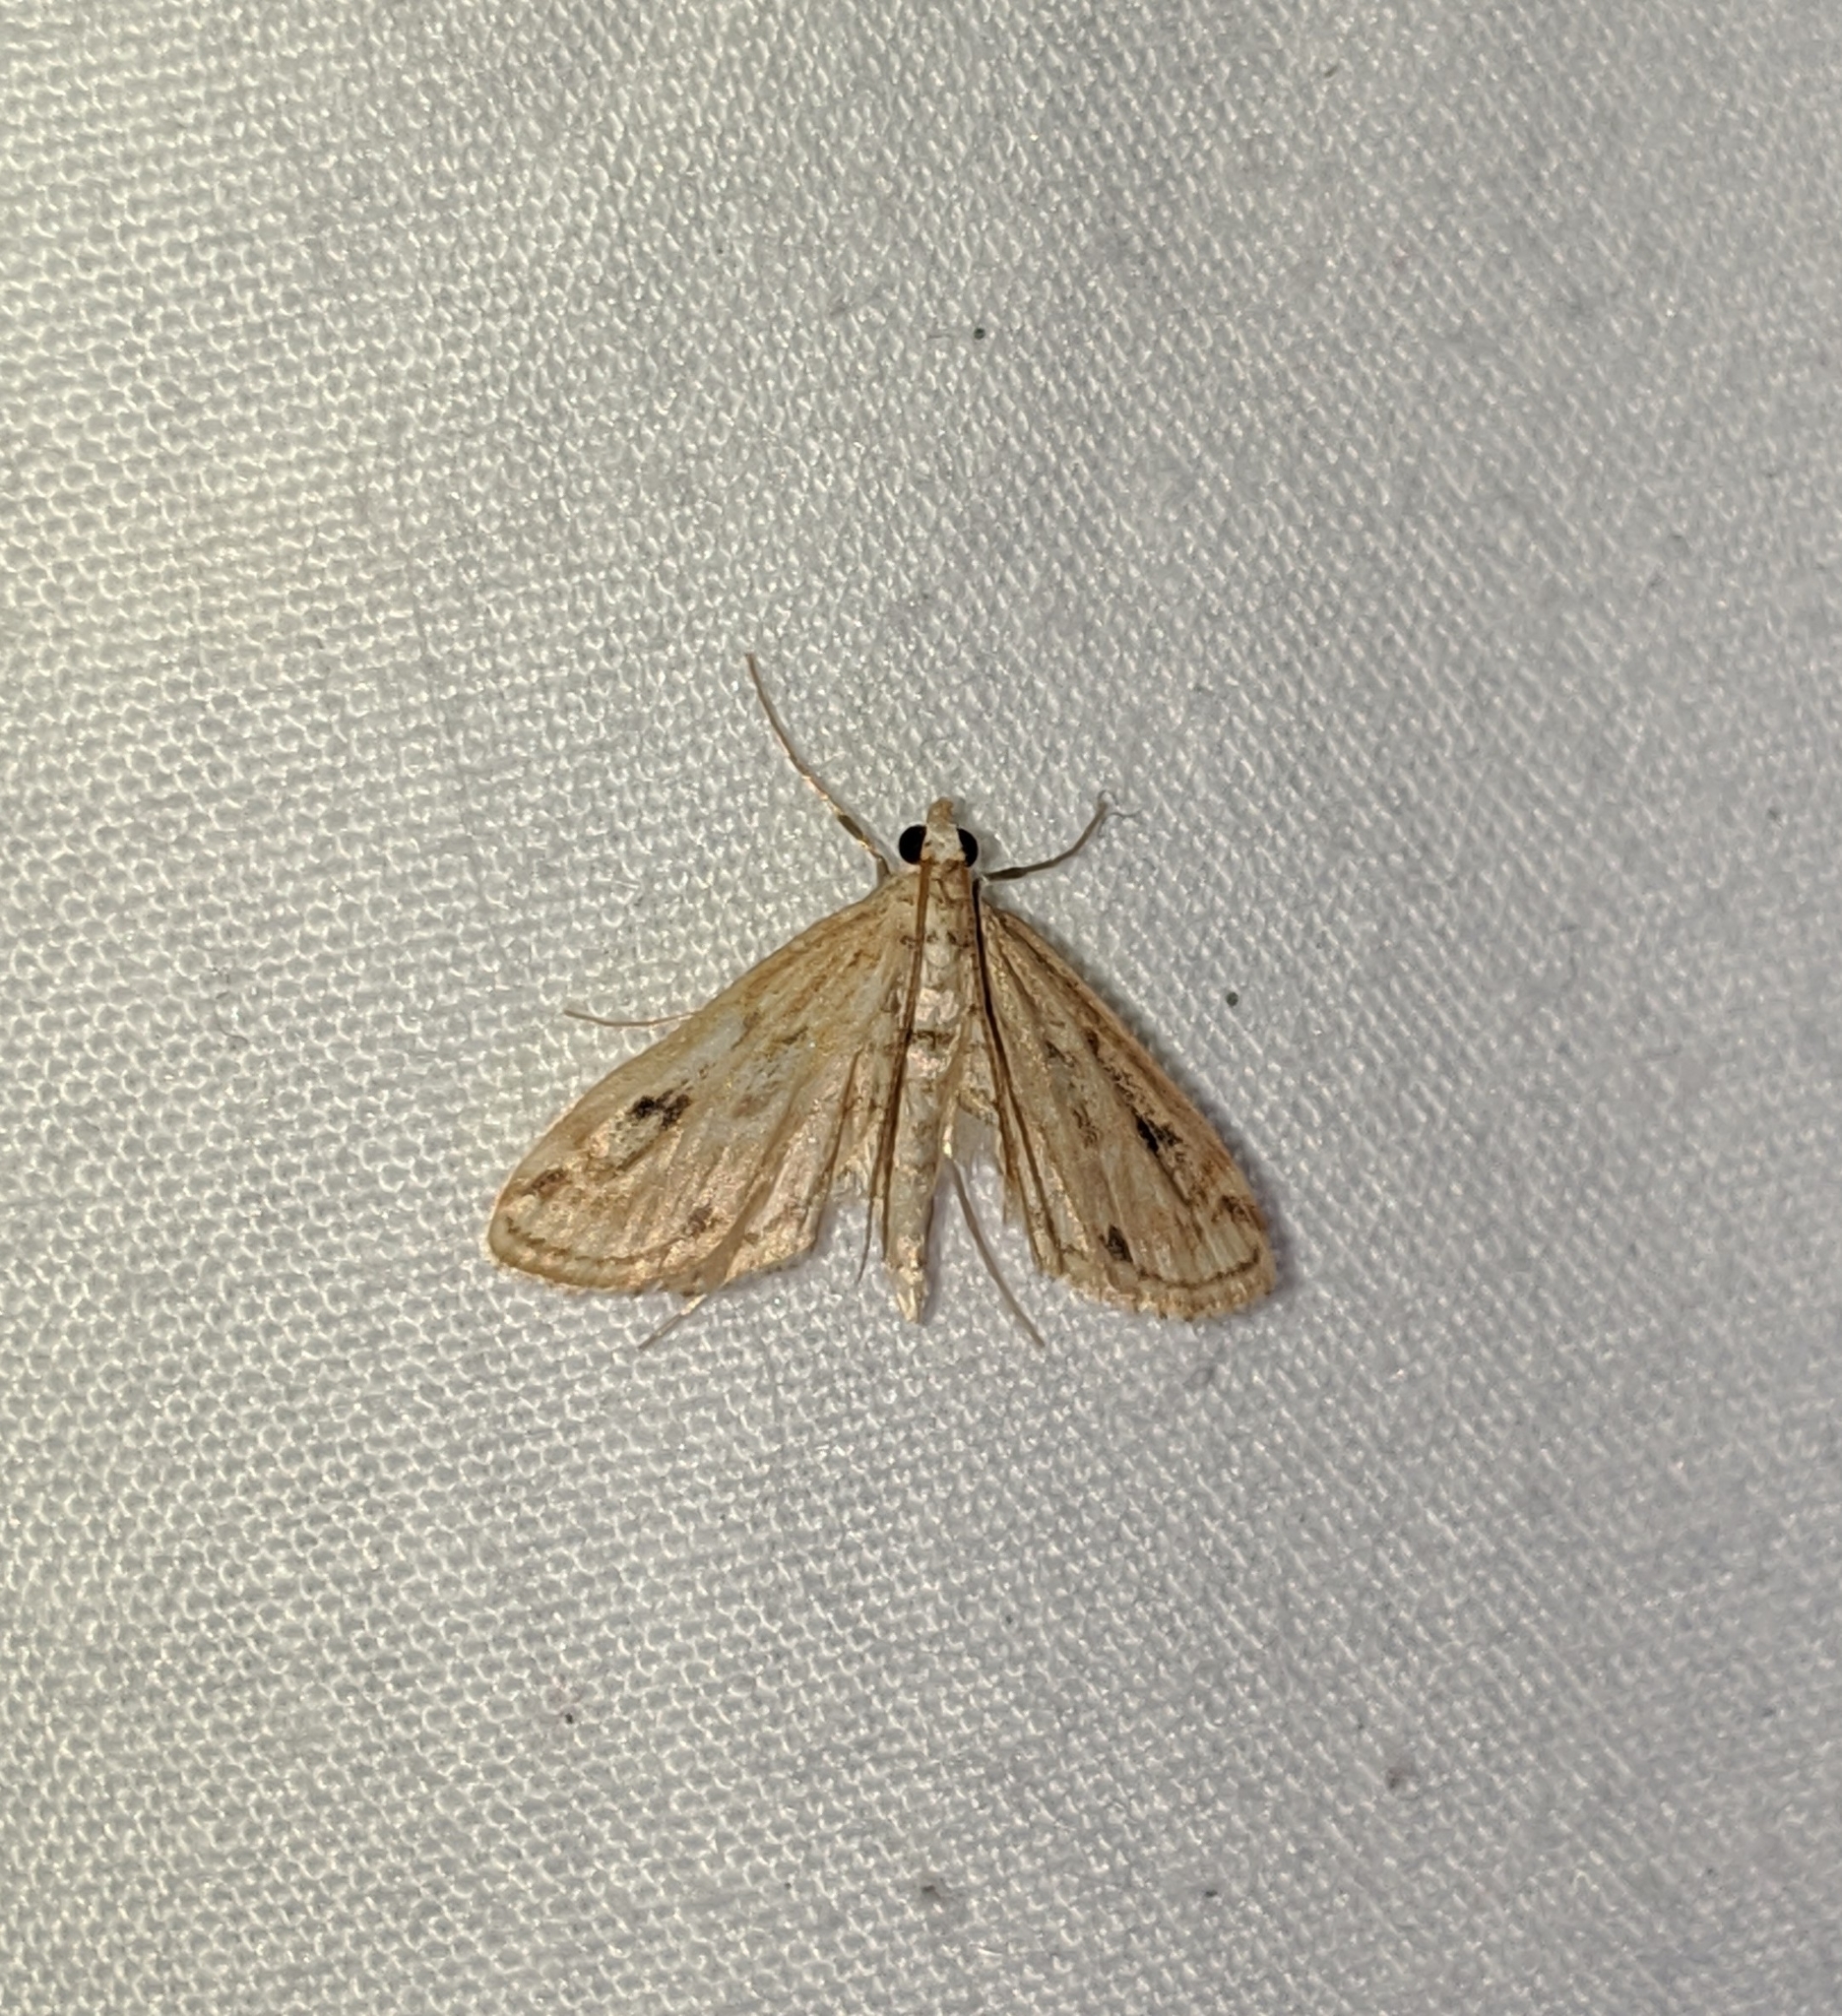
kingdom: Animalia
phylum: Arthropoda
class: Insecta
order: Lepidoptera
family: Crambidae
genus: Parapoynx
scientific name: Parapoynx allionealis
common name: Bladderwort casemaker
